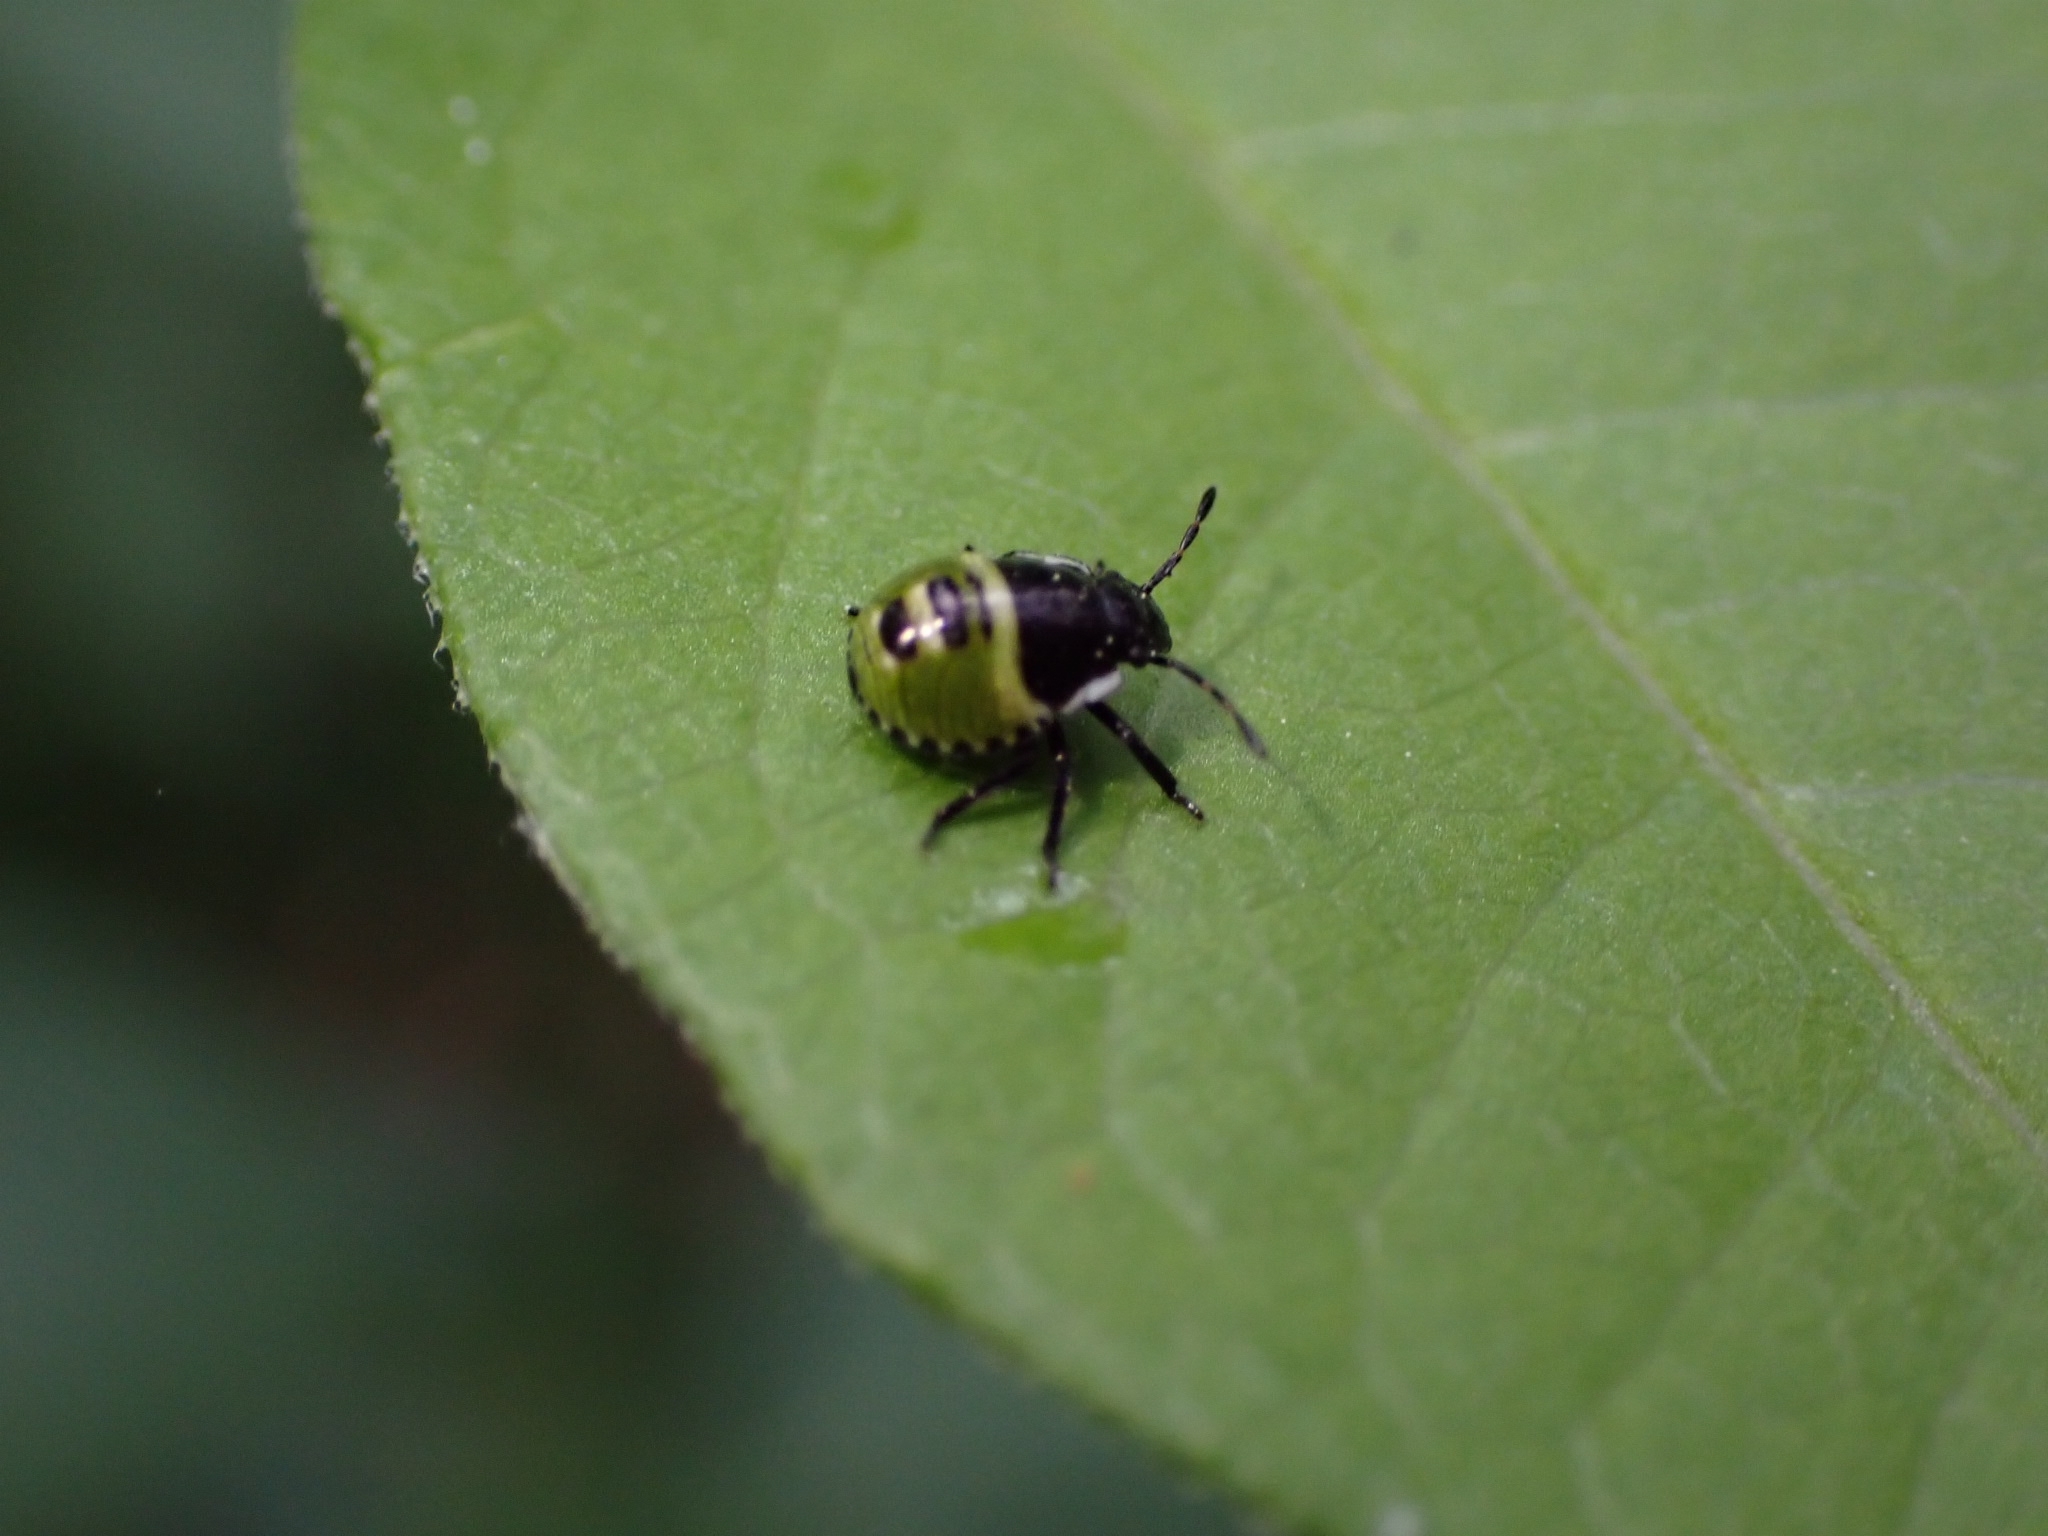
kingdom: Animalia
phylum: Arthropoda
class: Insecta
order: Hemiptera
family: Pentatomidae
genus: Palomena
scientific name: Palomena prasina
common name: Green shieldbug
